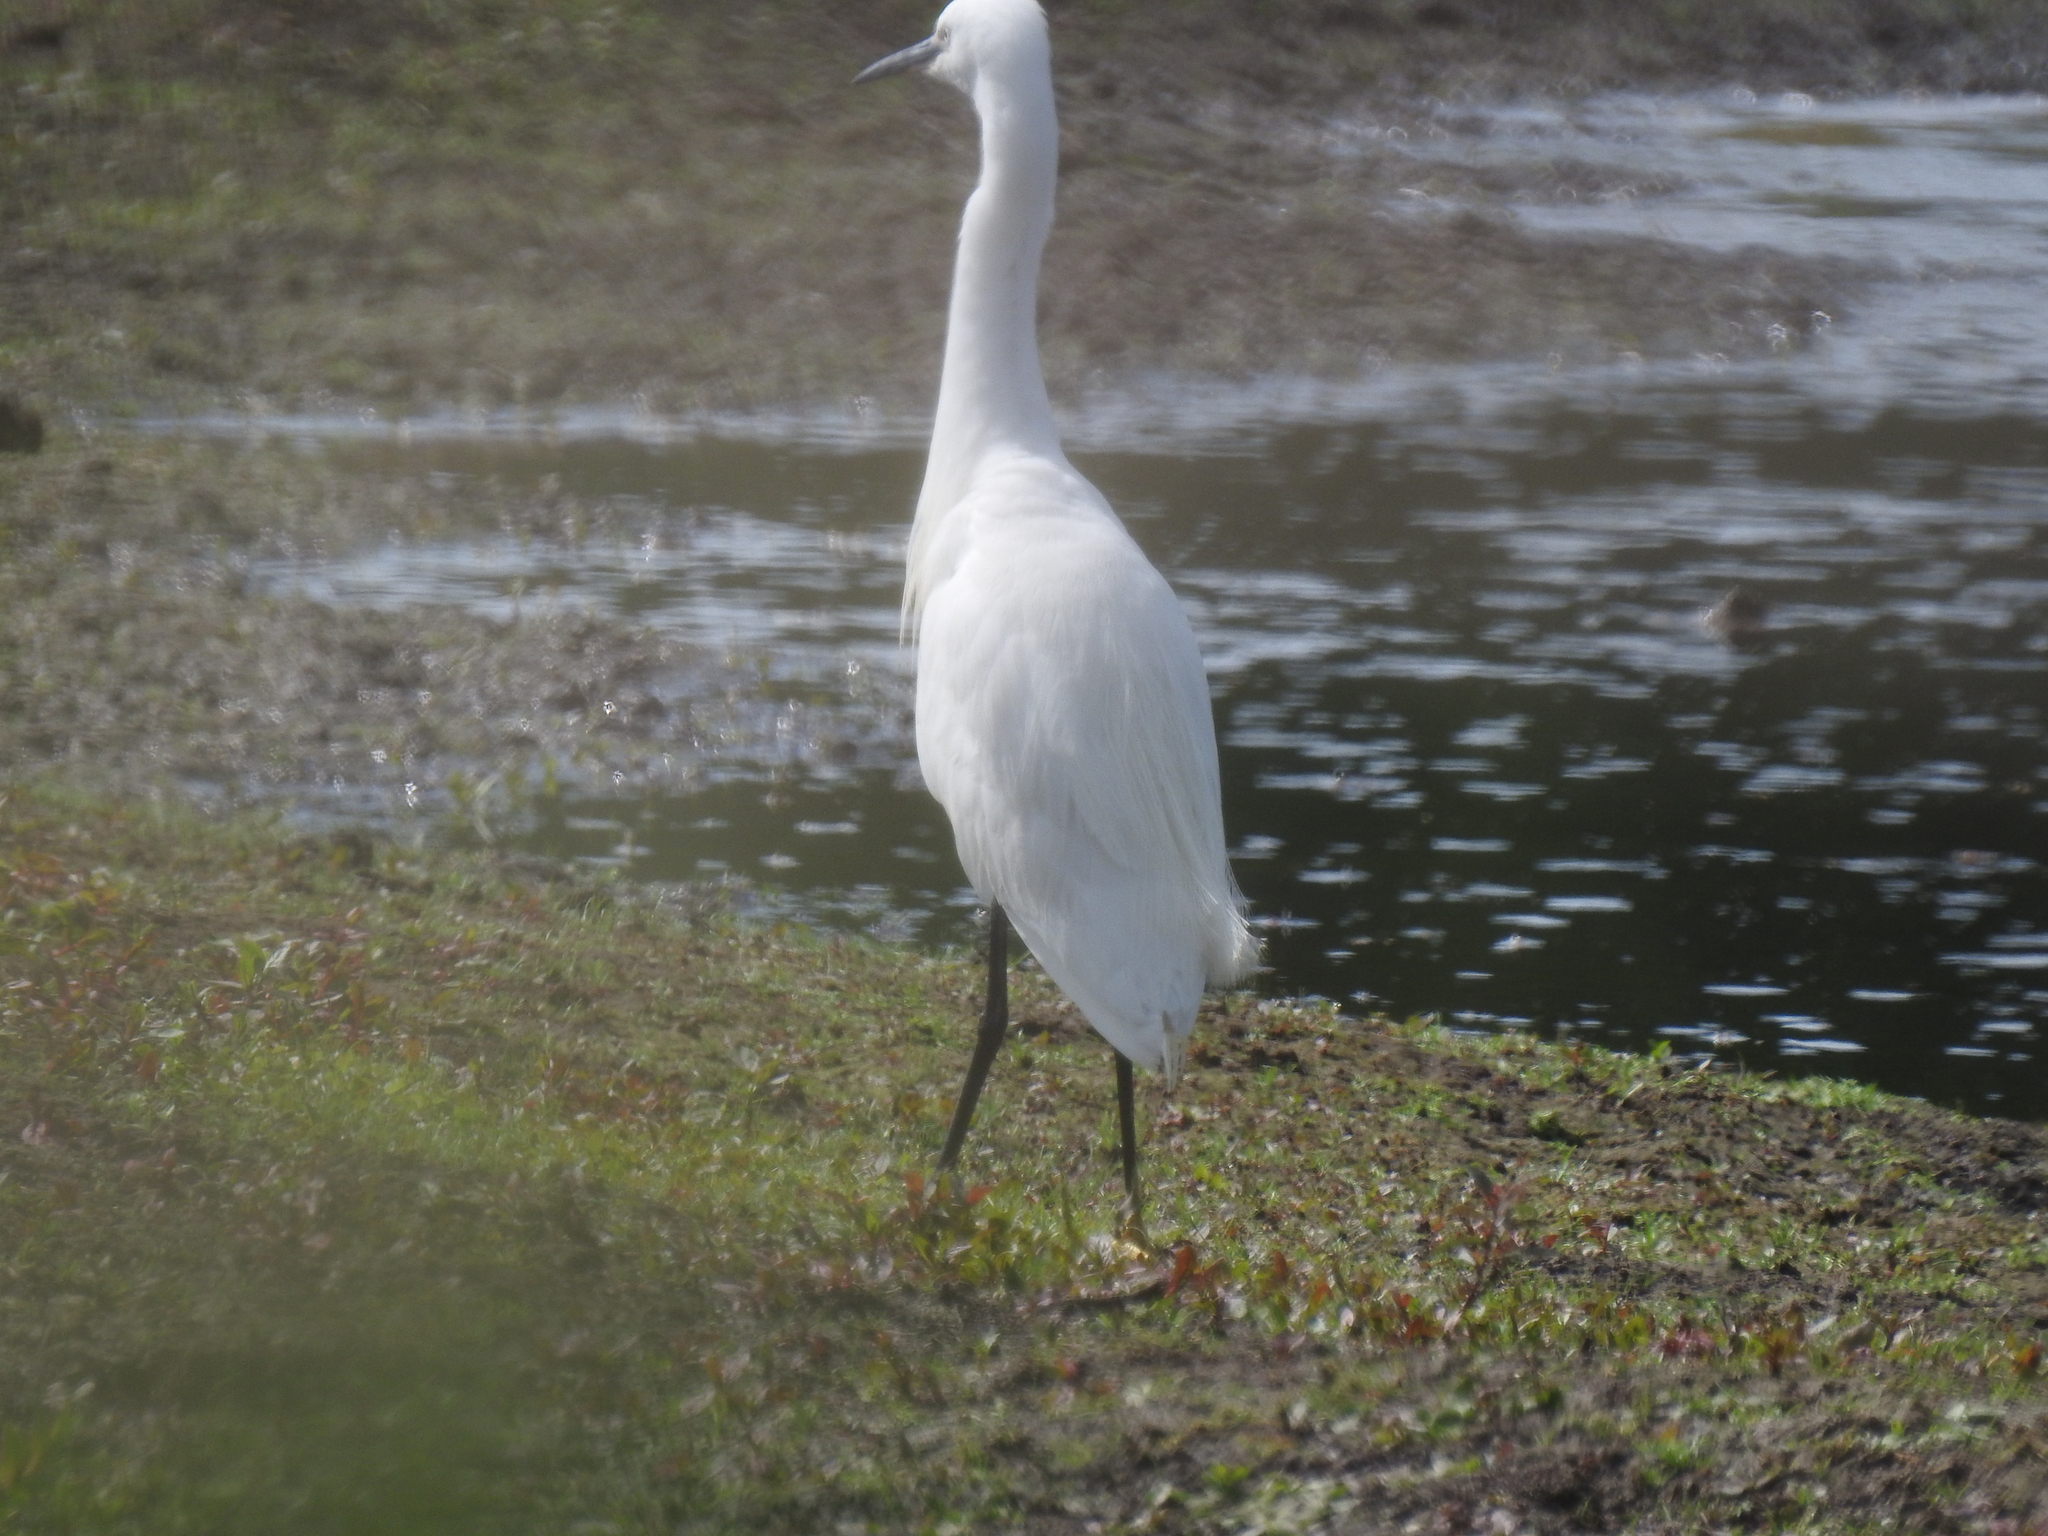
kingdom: Animalia
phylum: Chordata
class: Aves
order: Pelecaniformes
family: Ardeidae
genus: Egretta
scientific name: Egretta garzetta
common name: Little egret
